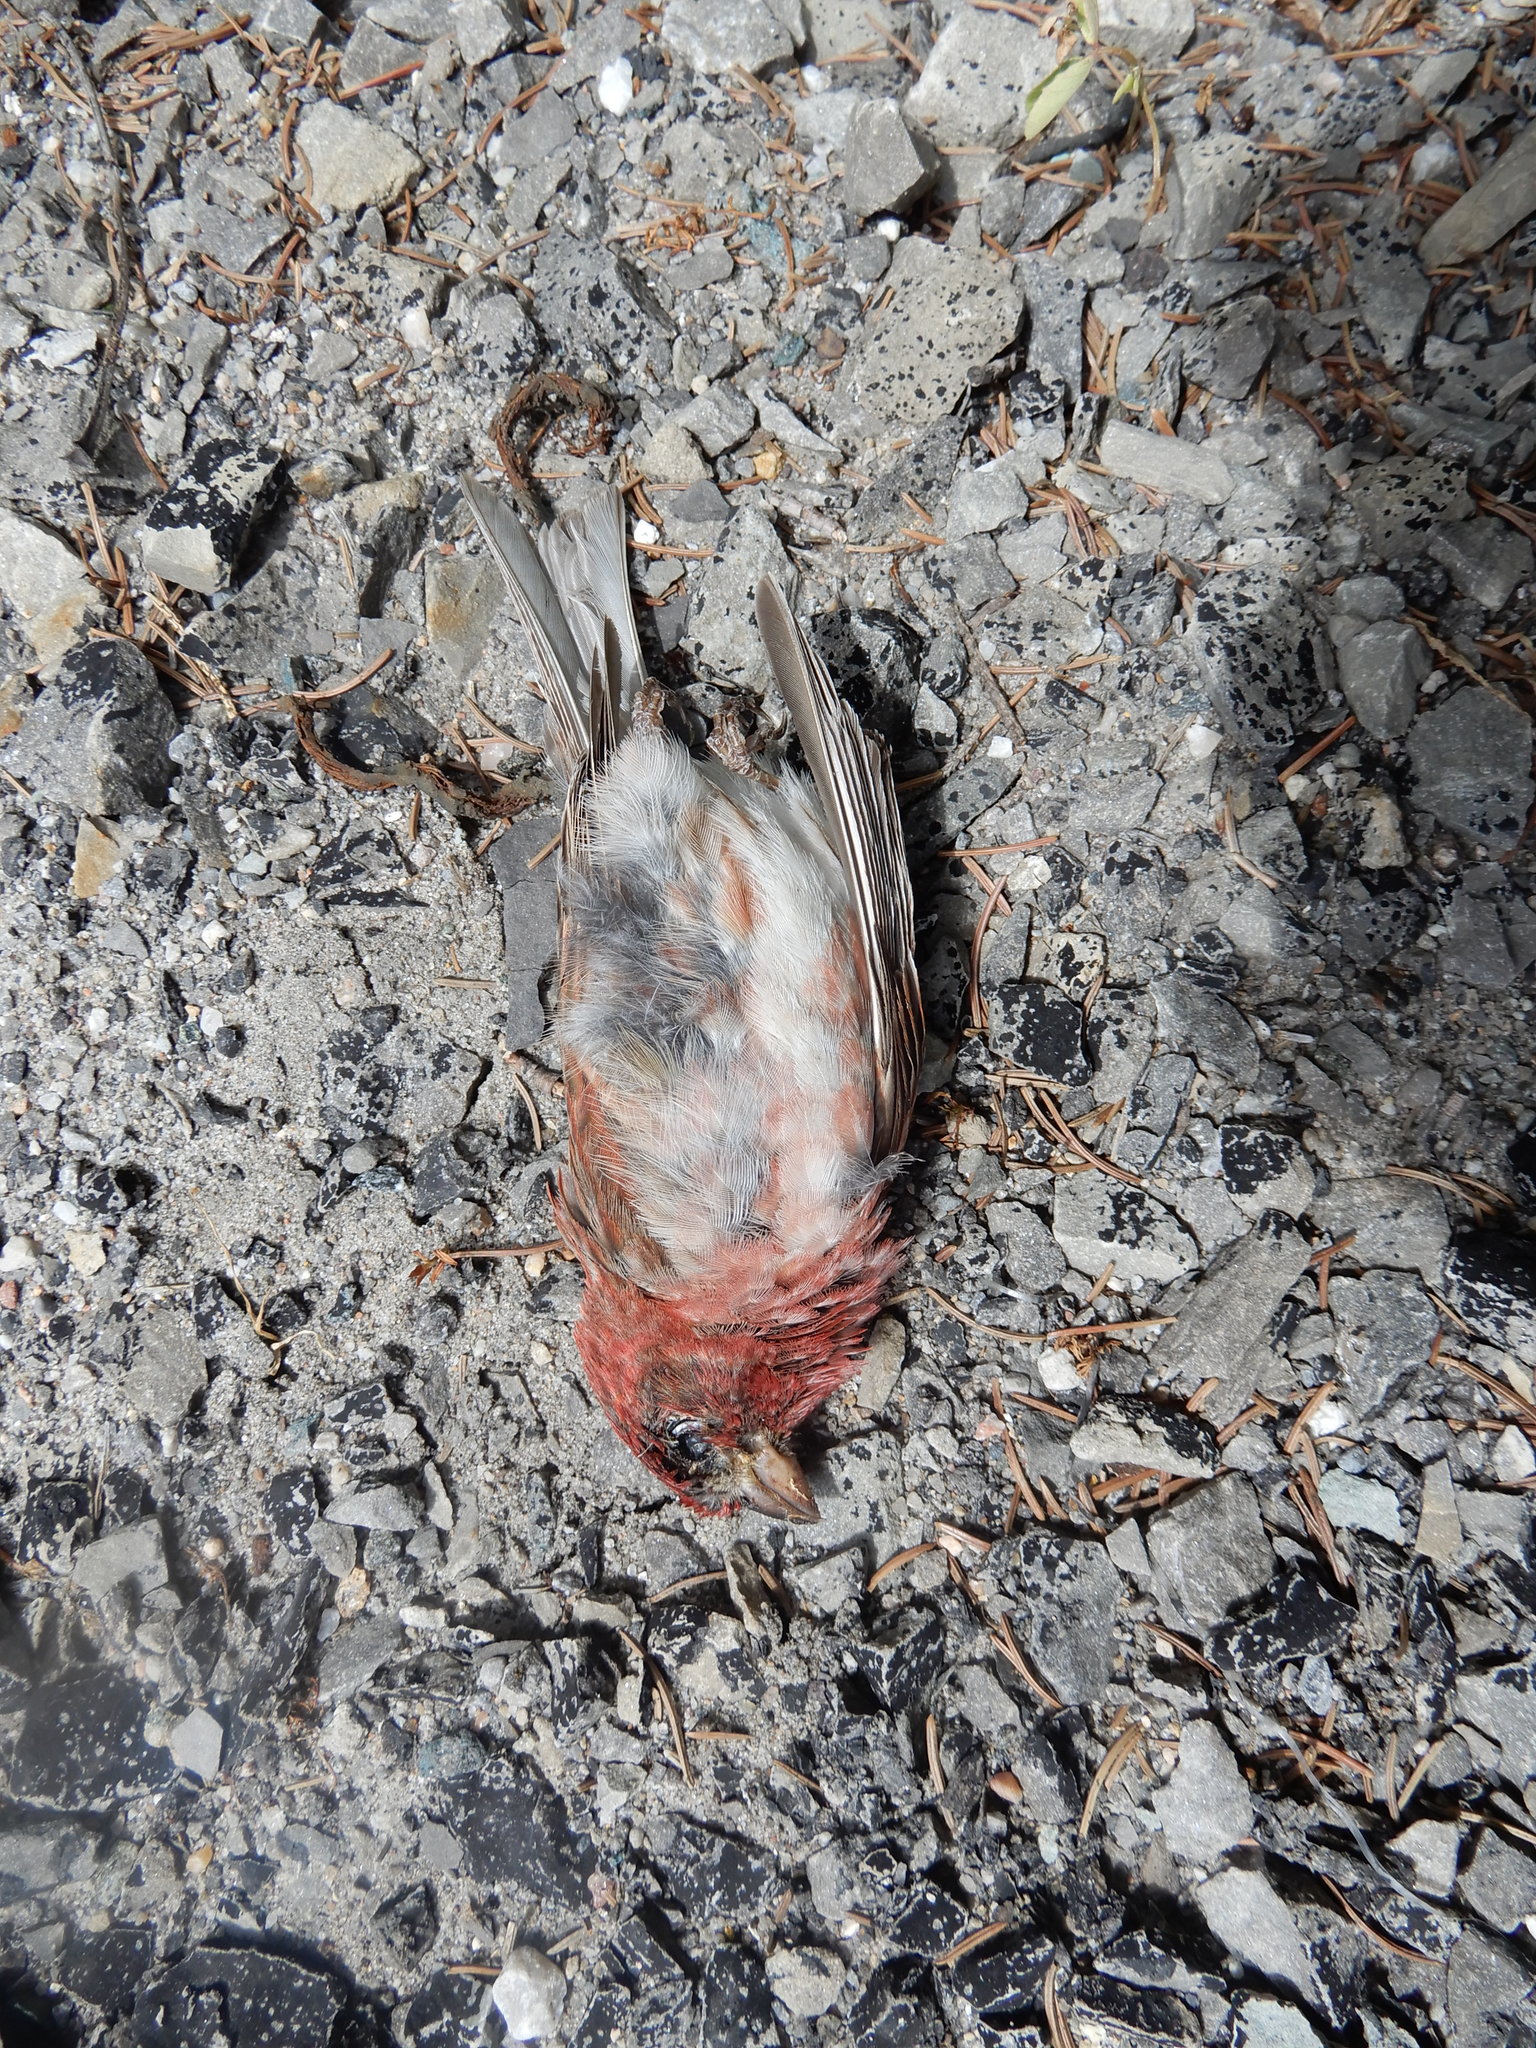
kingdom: Animalia
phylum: Chordata
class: Aves
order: Passeriformes
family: Fringillidae
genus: Haemorhous
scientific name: Haemorhous purpureus
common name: Purple finch
